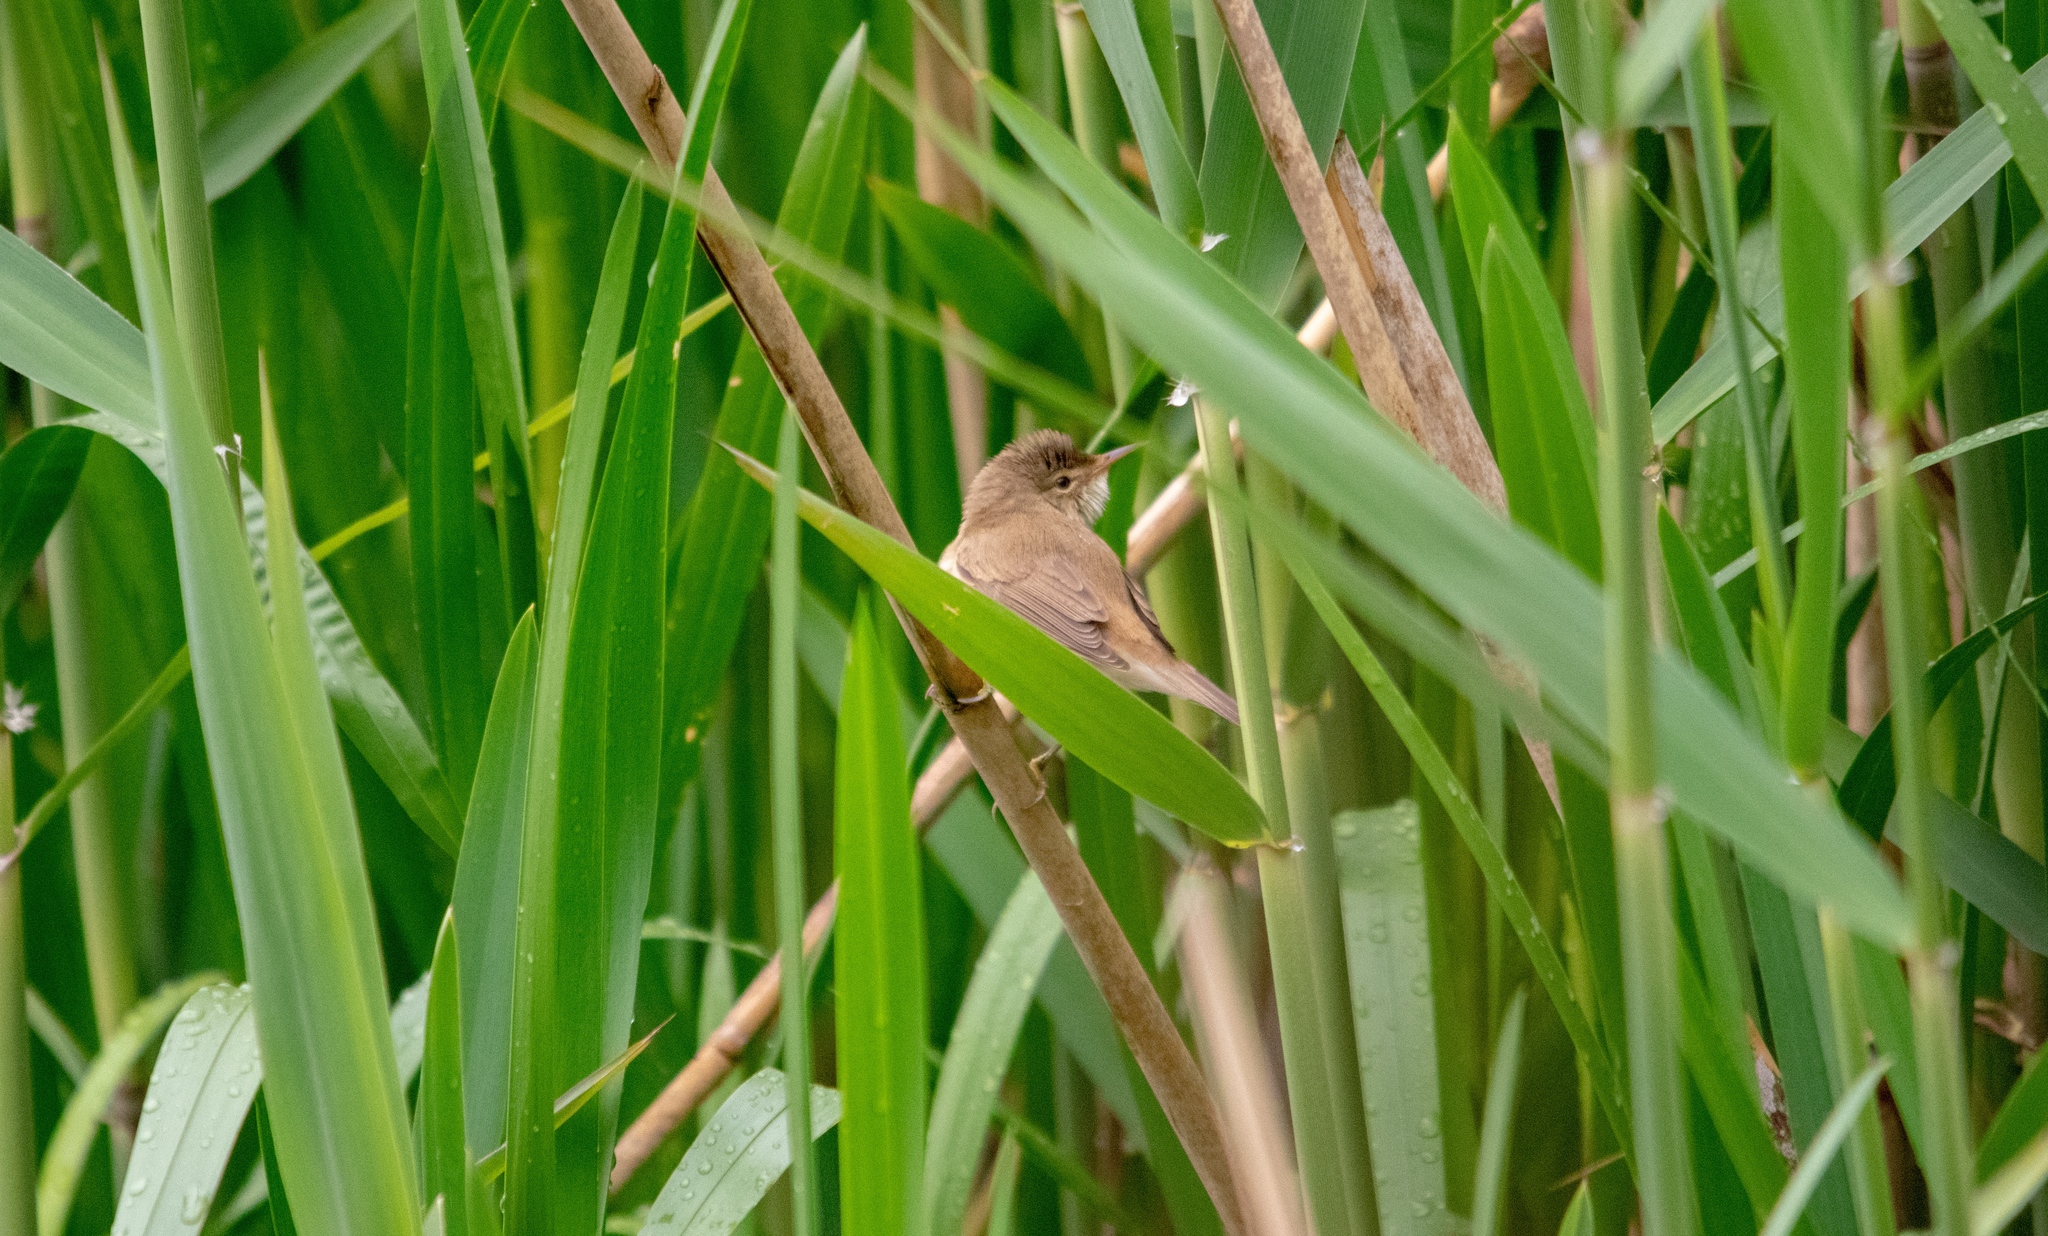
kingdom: Animalia
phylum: Chordata
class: Aves
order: Passeriformes
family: Acrocephalidae
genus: Acrocephalus
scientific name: Acrocephalus scirpaceus
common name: Eurasian reed warbler
